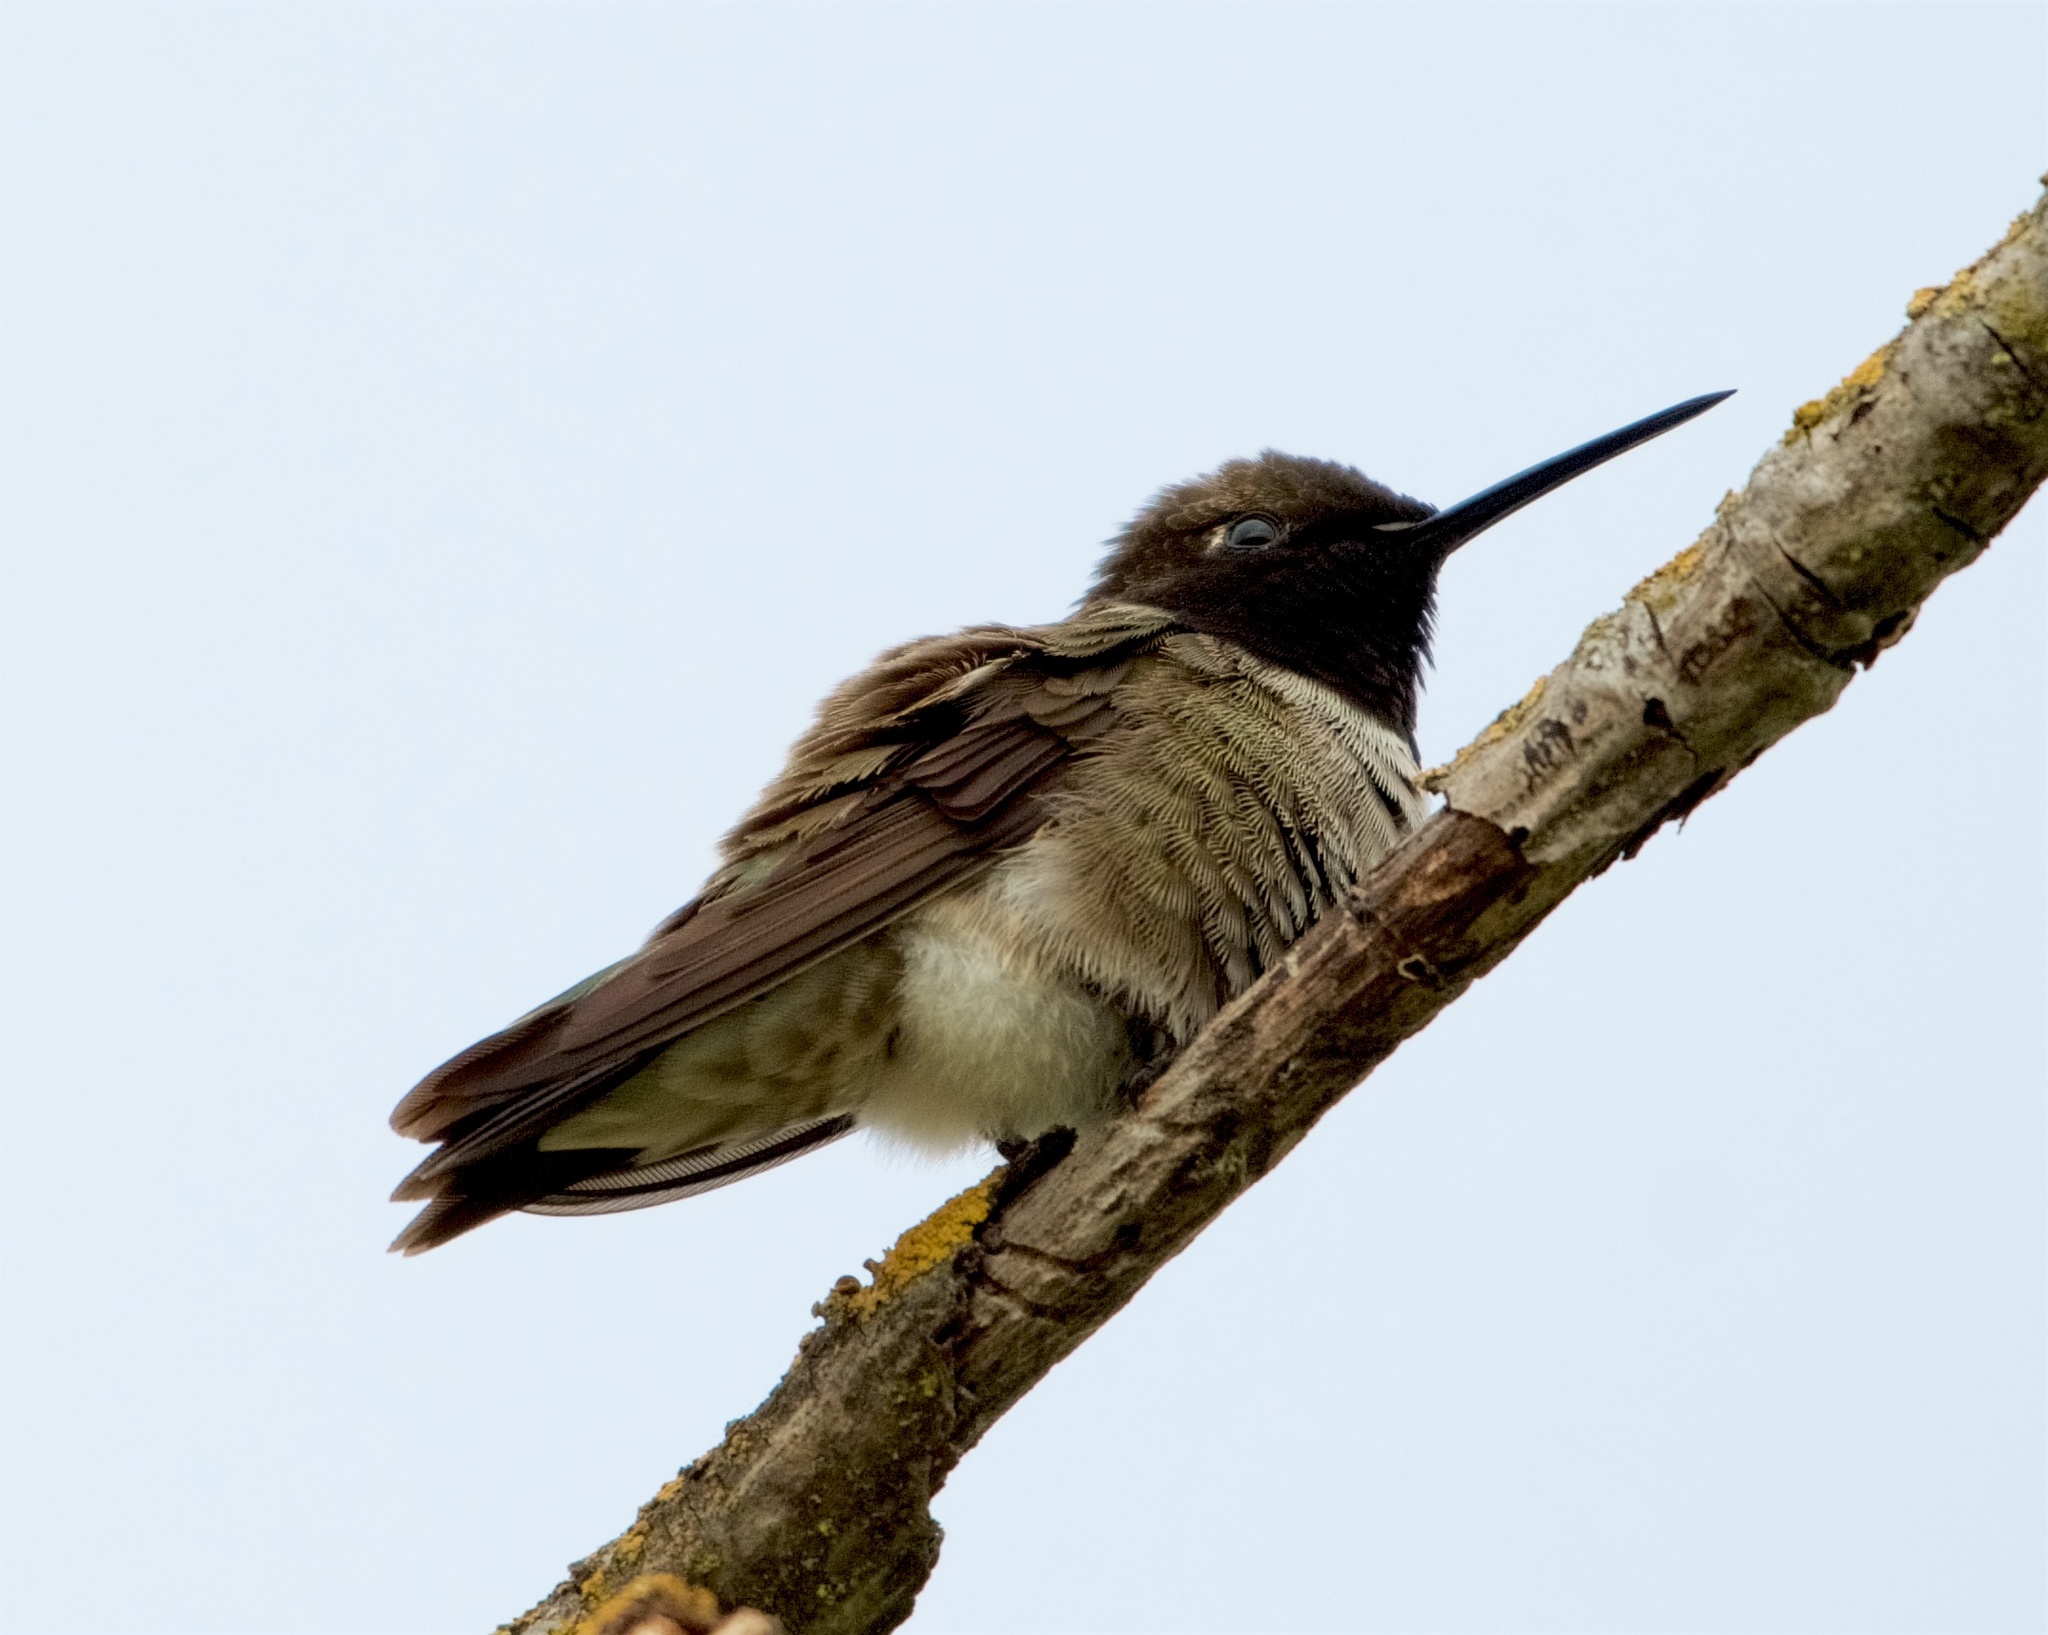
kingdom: Animalia
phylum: Chordata
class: Aves
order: Apodiformes
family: Trochilidae
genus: Archilochus
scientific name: Archilochus alexandri
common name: Black-chinned hummingbird
